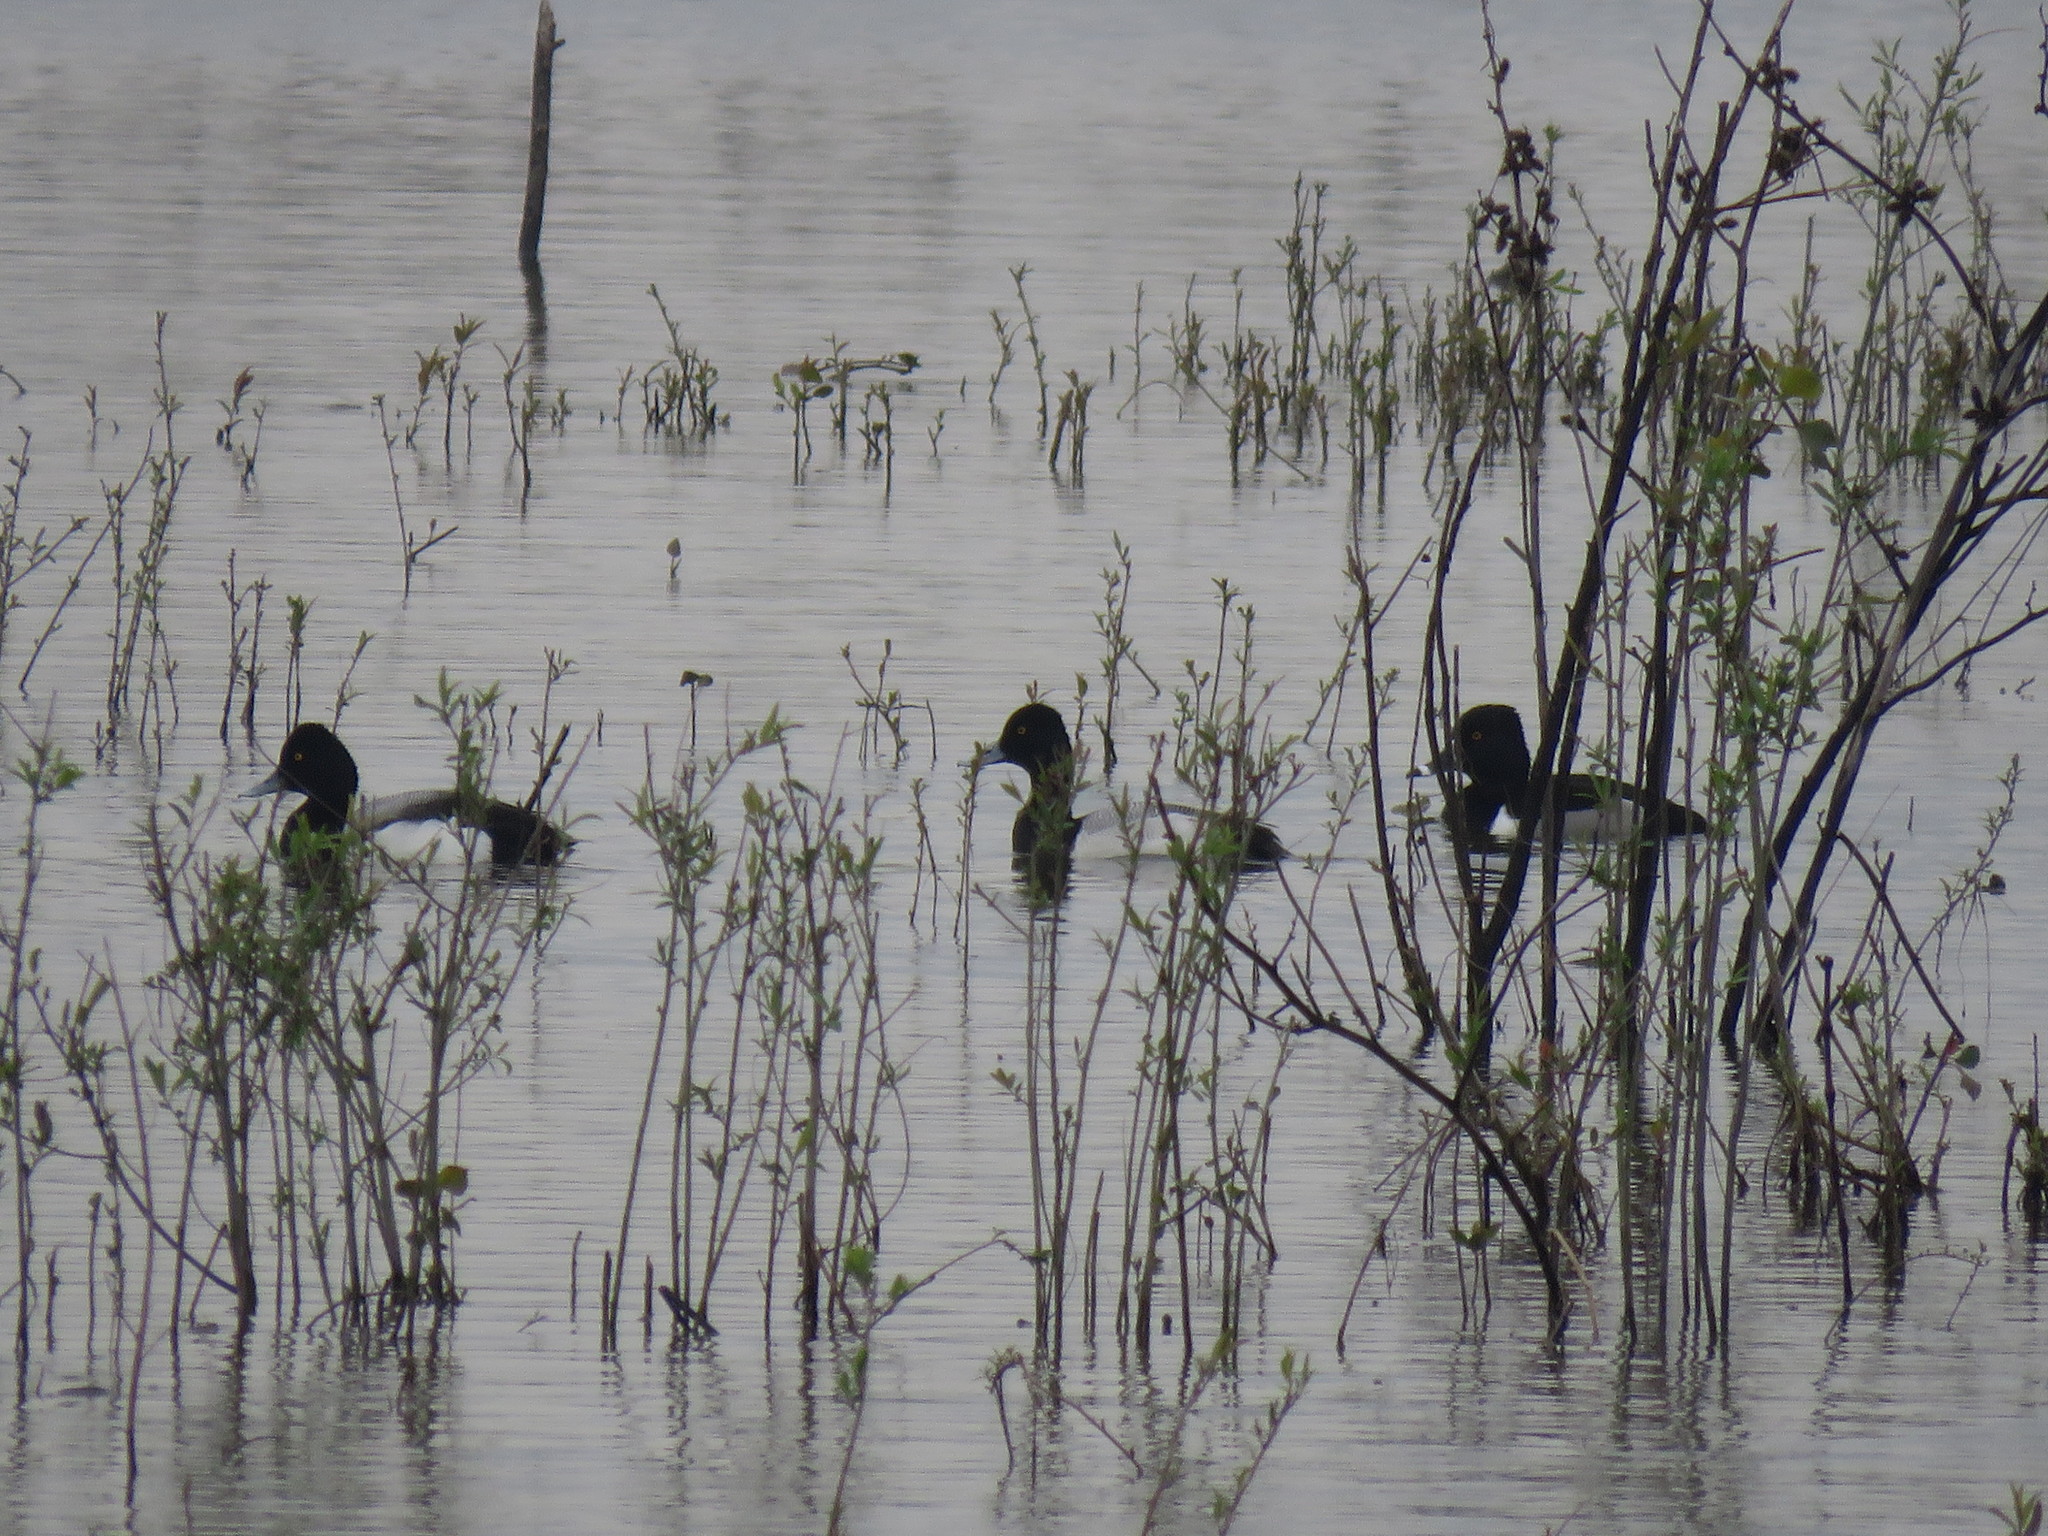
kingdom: Animalia
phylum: Chordata
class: Aves
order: Anseriformes
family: Anatidae
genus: Aythya
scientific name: Aythya affinis
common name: Lesser scaup
